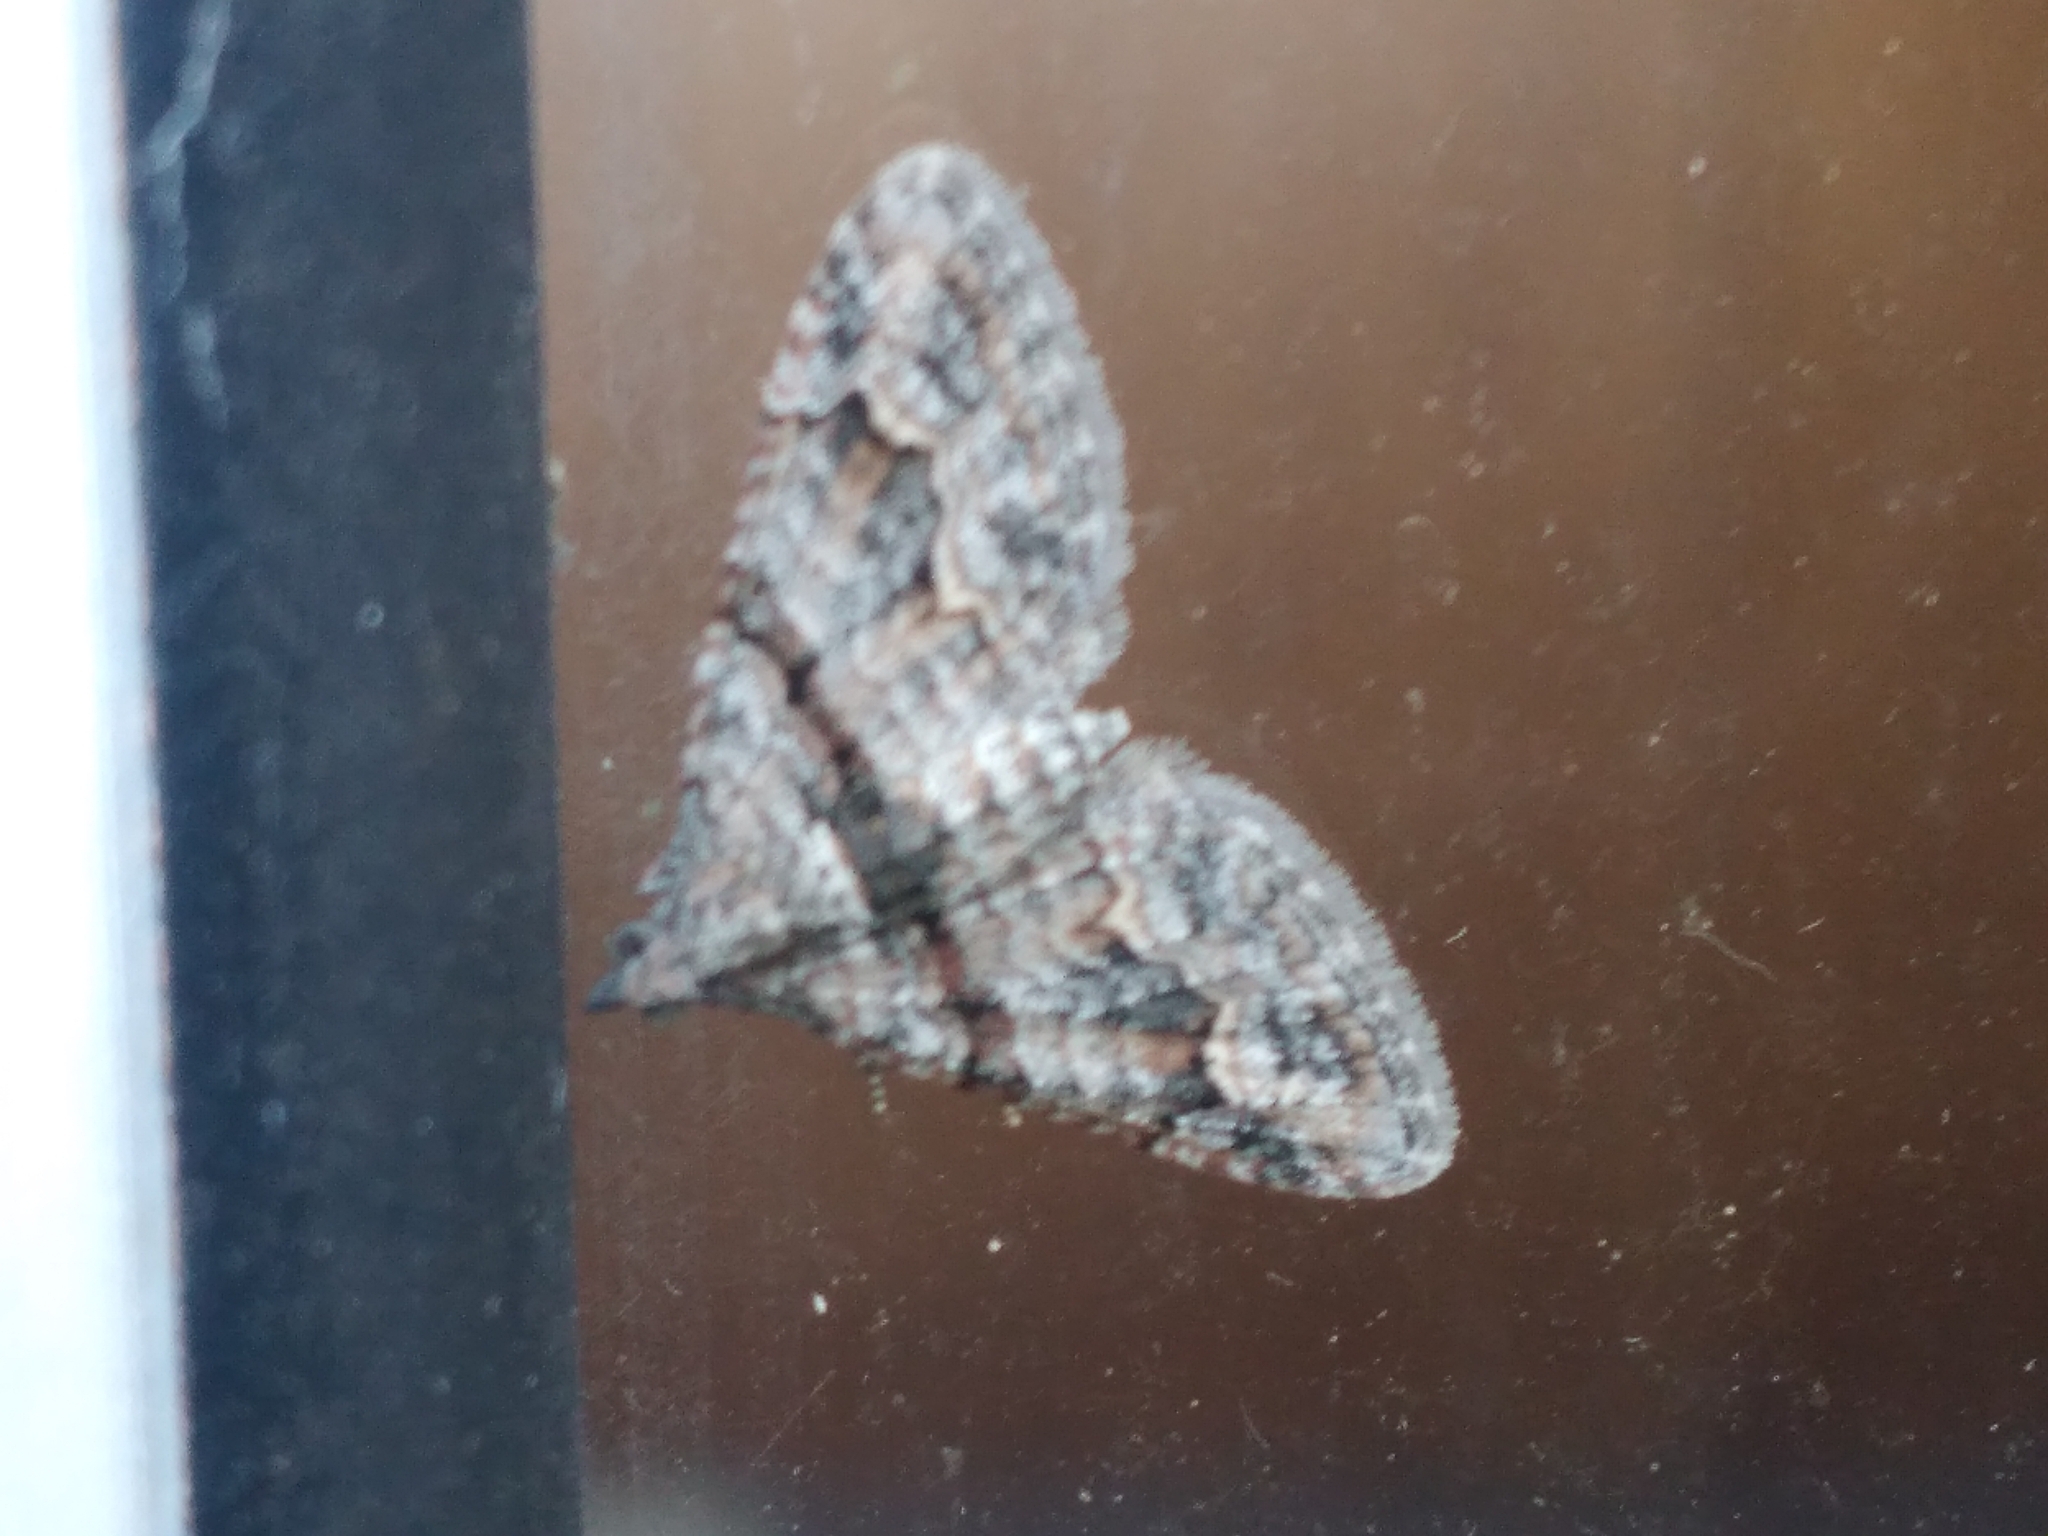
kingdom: Animalia
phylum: Arthropoda
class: Insecta
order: Lepidoptera
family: Geometridae
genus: Phrissogonus
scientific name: Phrissogonus laticostata
